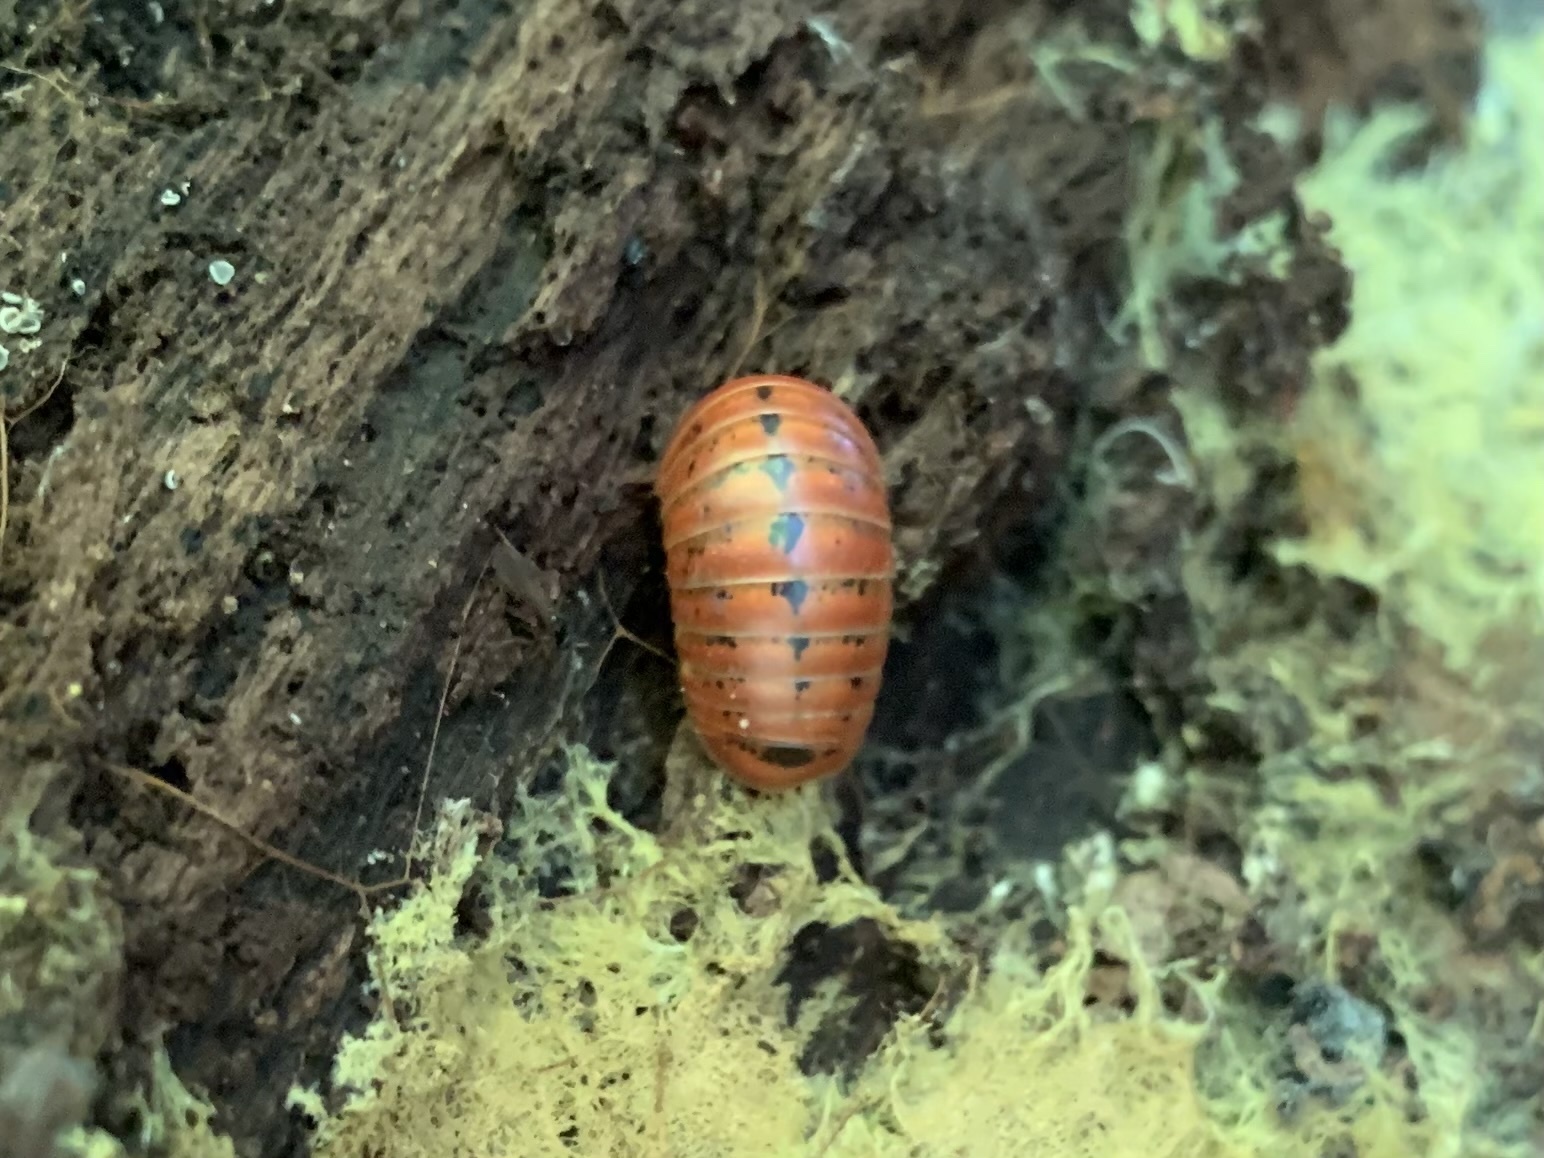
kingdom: Animalia
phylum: Arthropoda
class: Diplopoda
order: Glomerida
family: Glomeridae
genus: Glomeris
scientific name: Glomeris klugii
